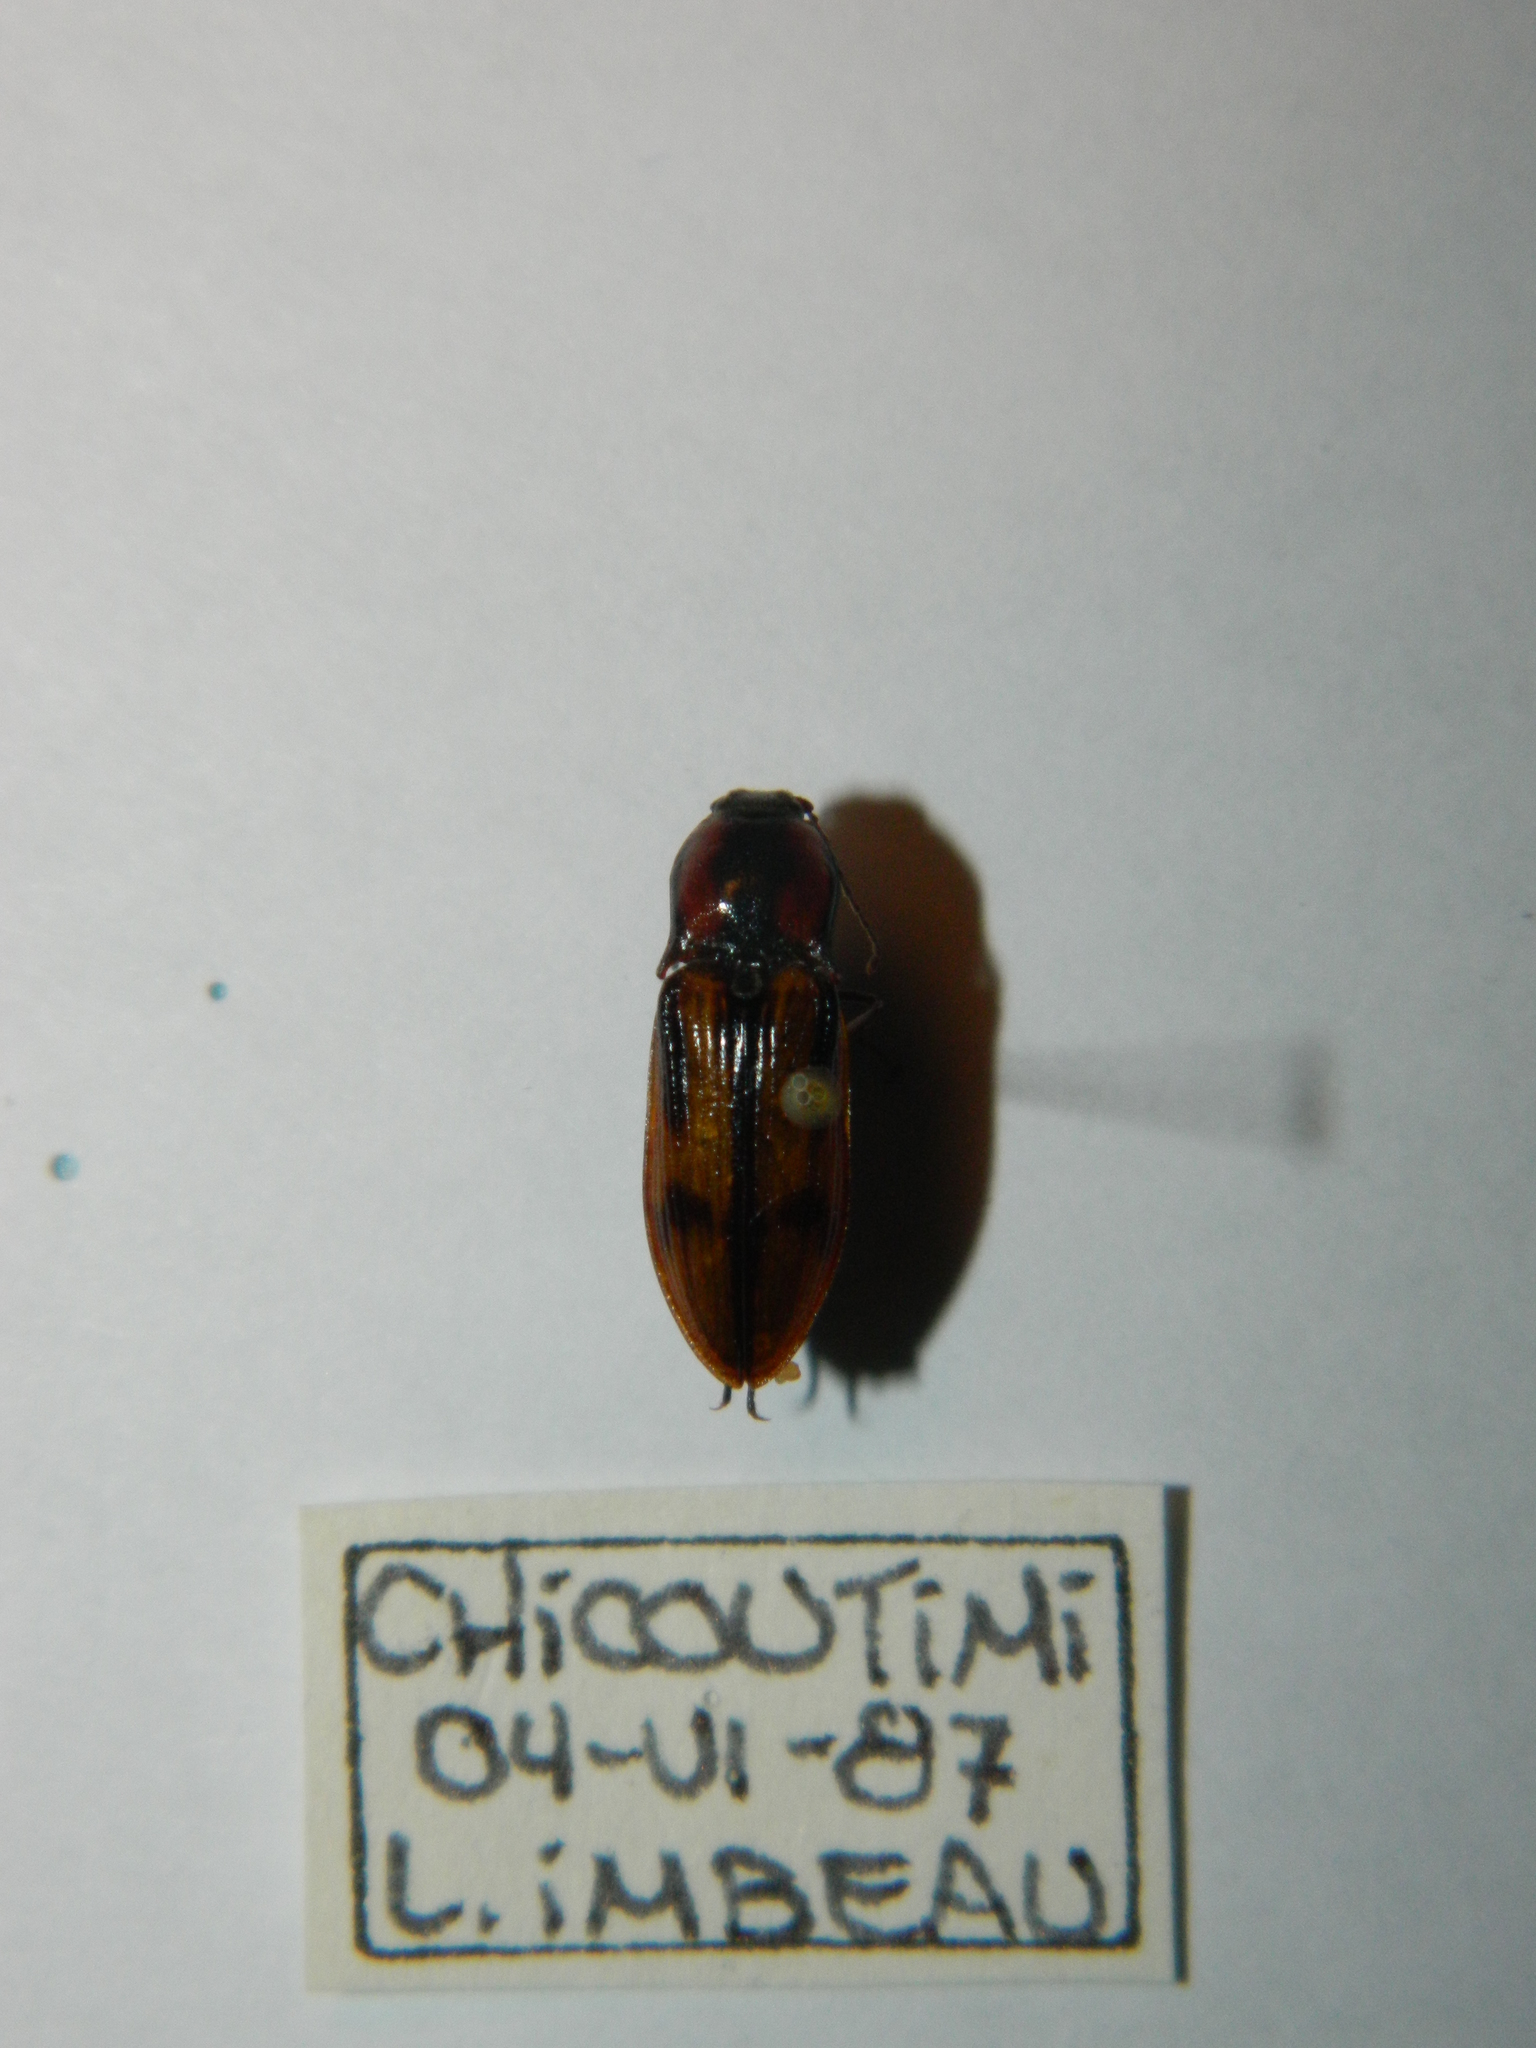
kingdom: Animalia
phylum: Arthropoda
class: Insecta
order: Coleoptera
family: Elateridae
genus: Selatosomus
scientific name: Selatosomus pulcher
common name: Noble click beetle
